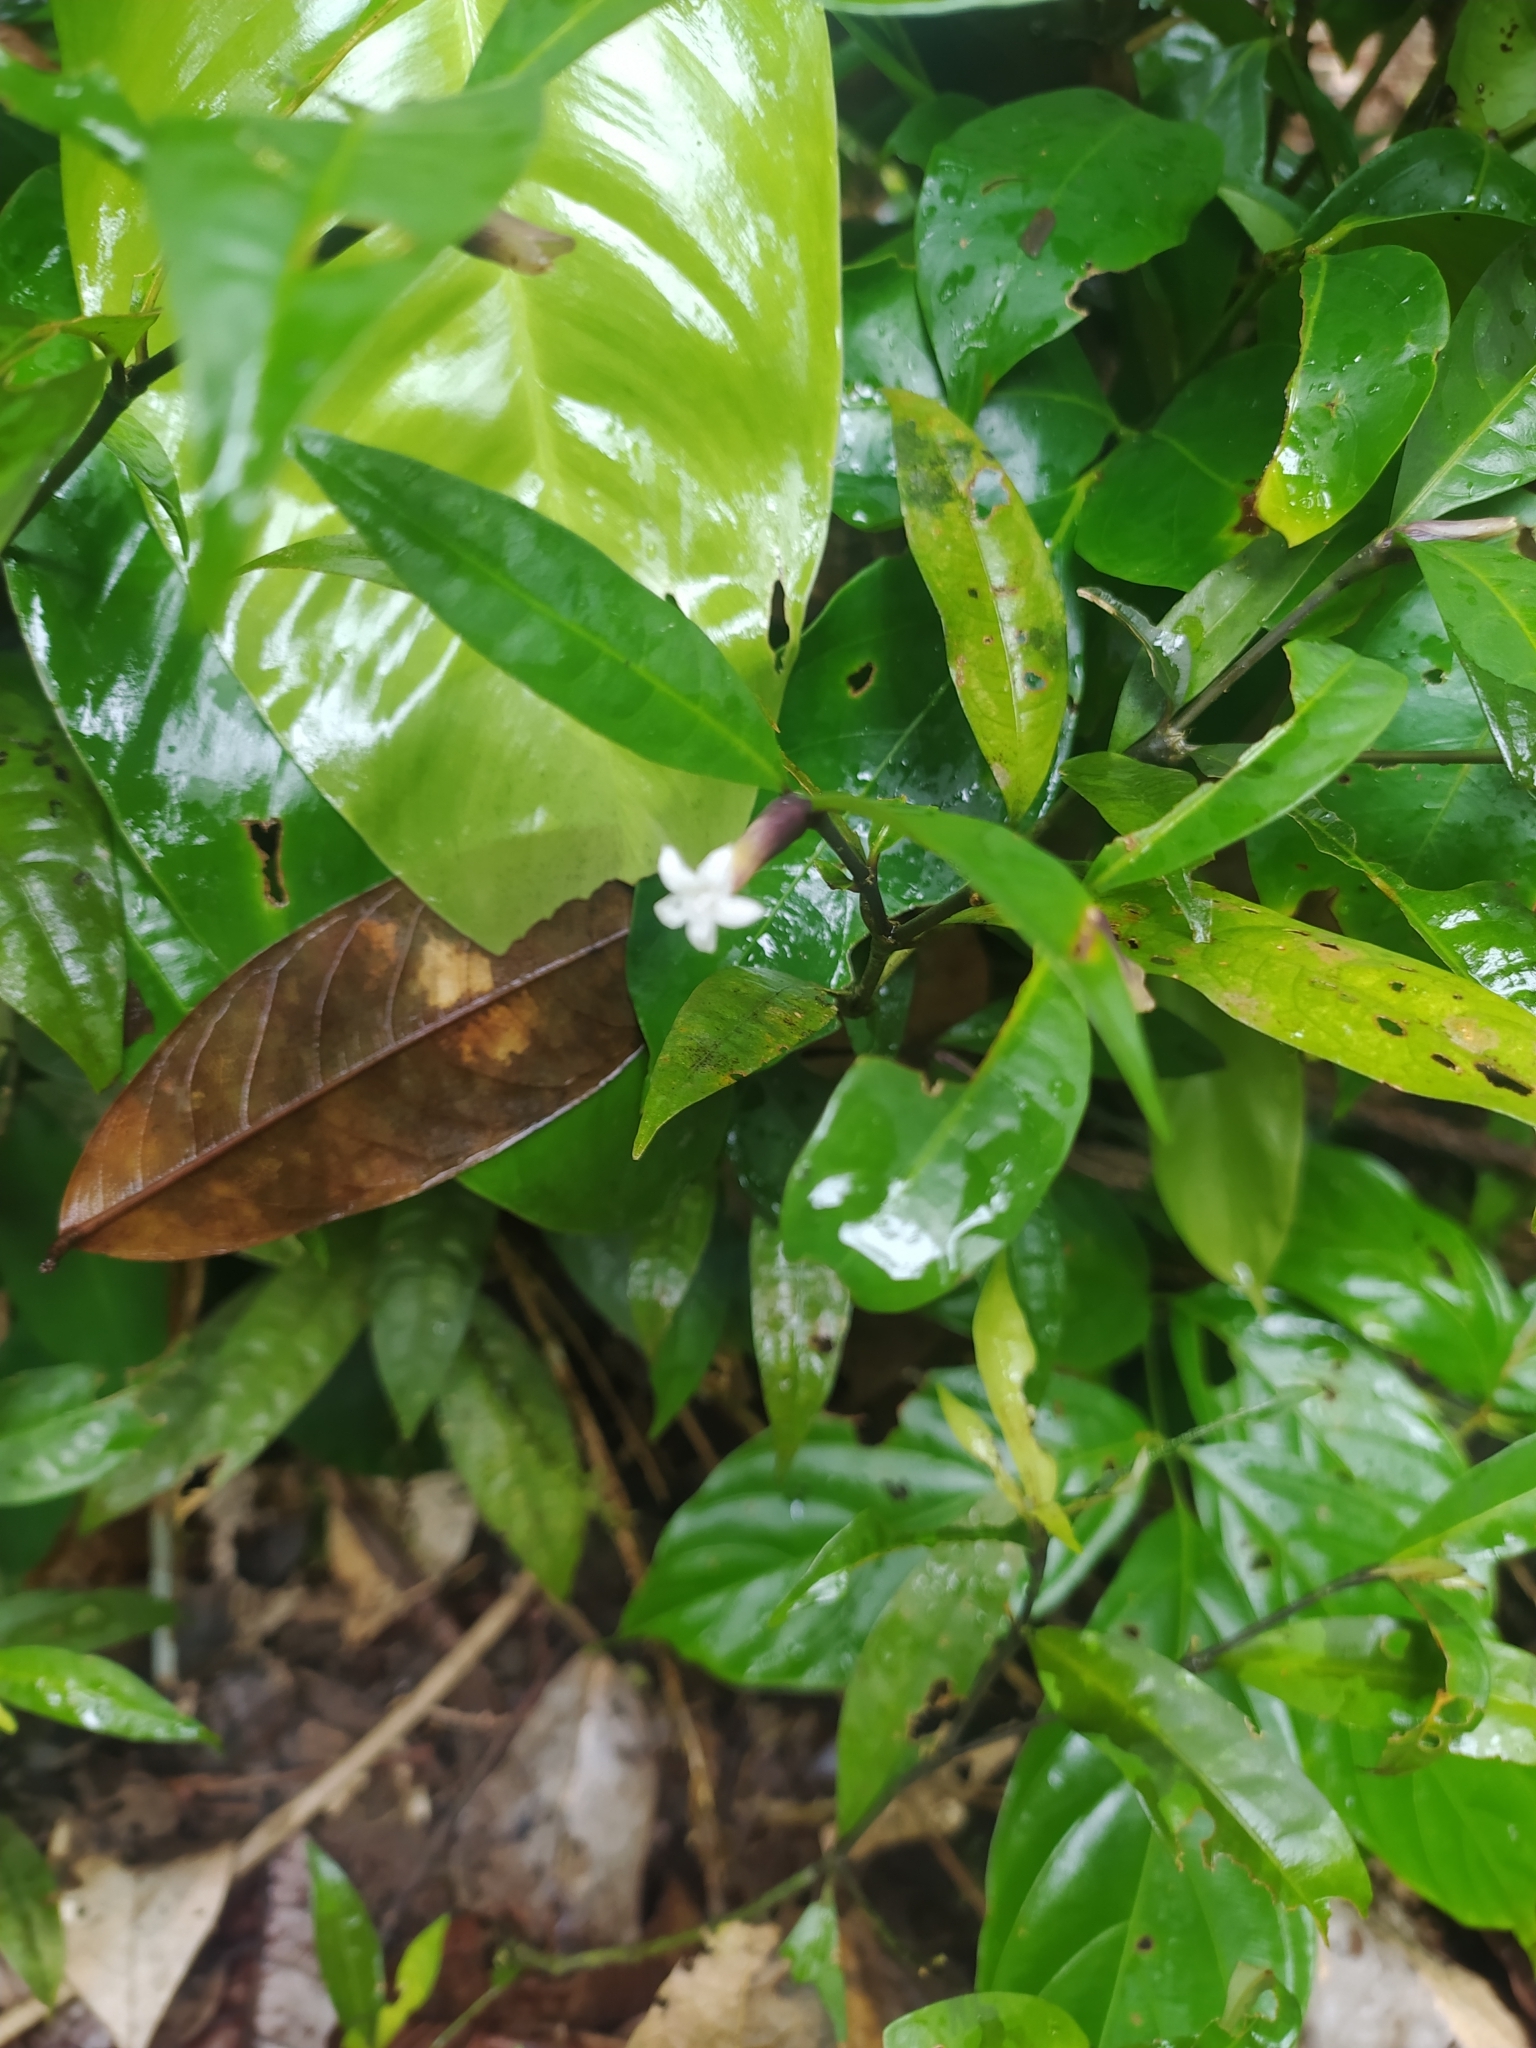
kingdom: Plantae
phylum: Tracheophyta
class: Magnoliopsida
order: Gentianales
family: Rubiaceae
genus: Palicourea
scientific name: Palicourea oblonga
